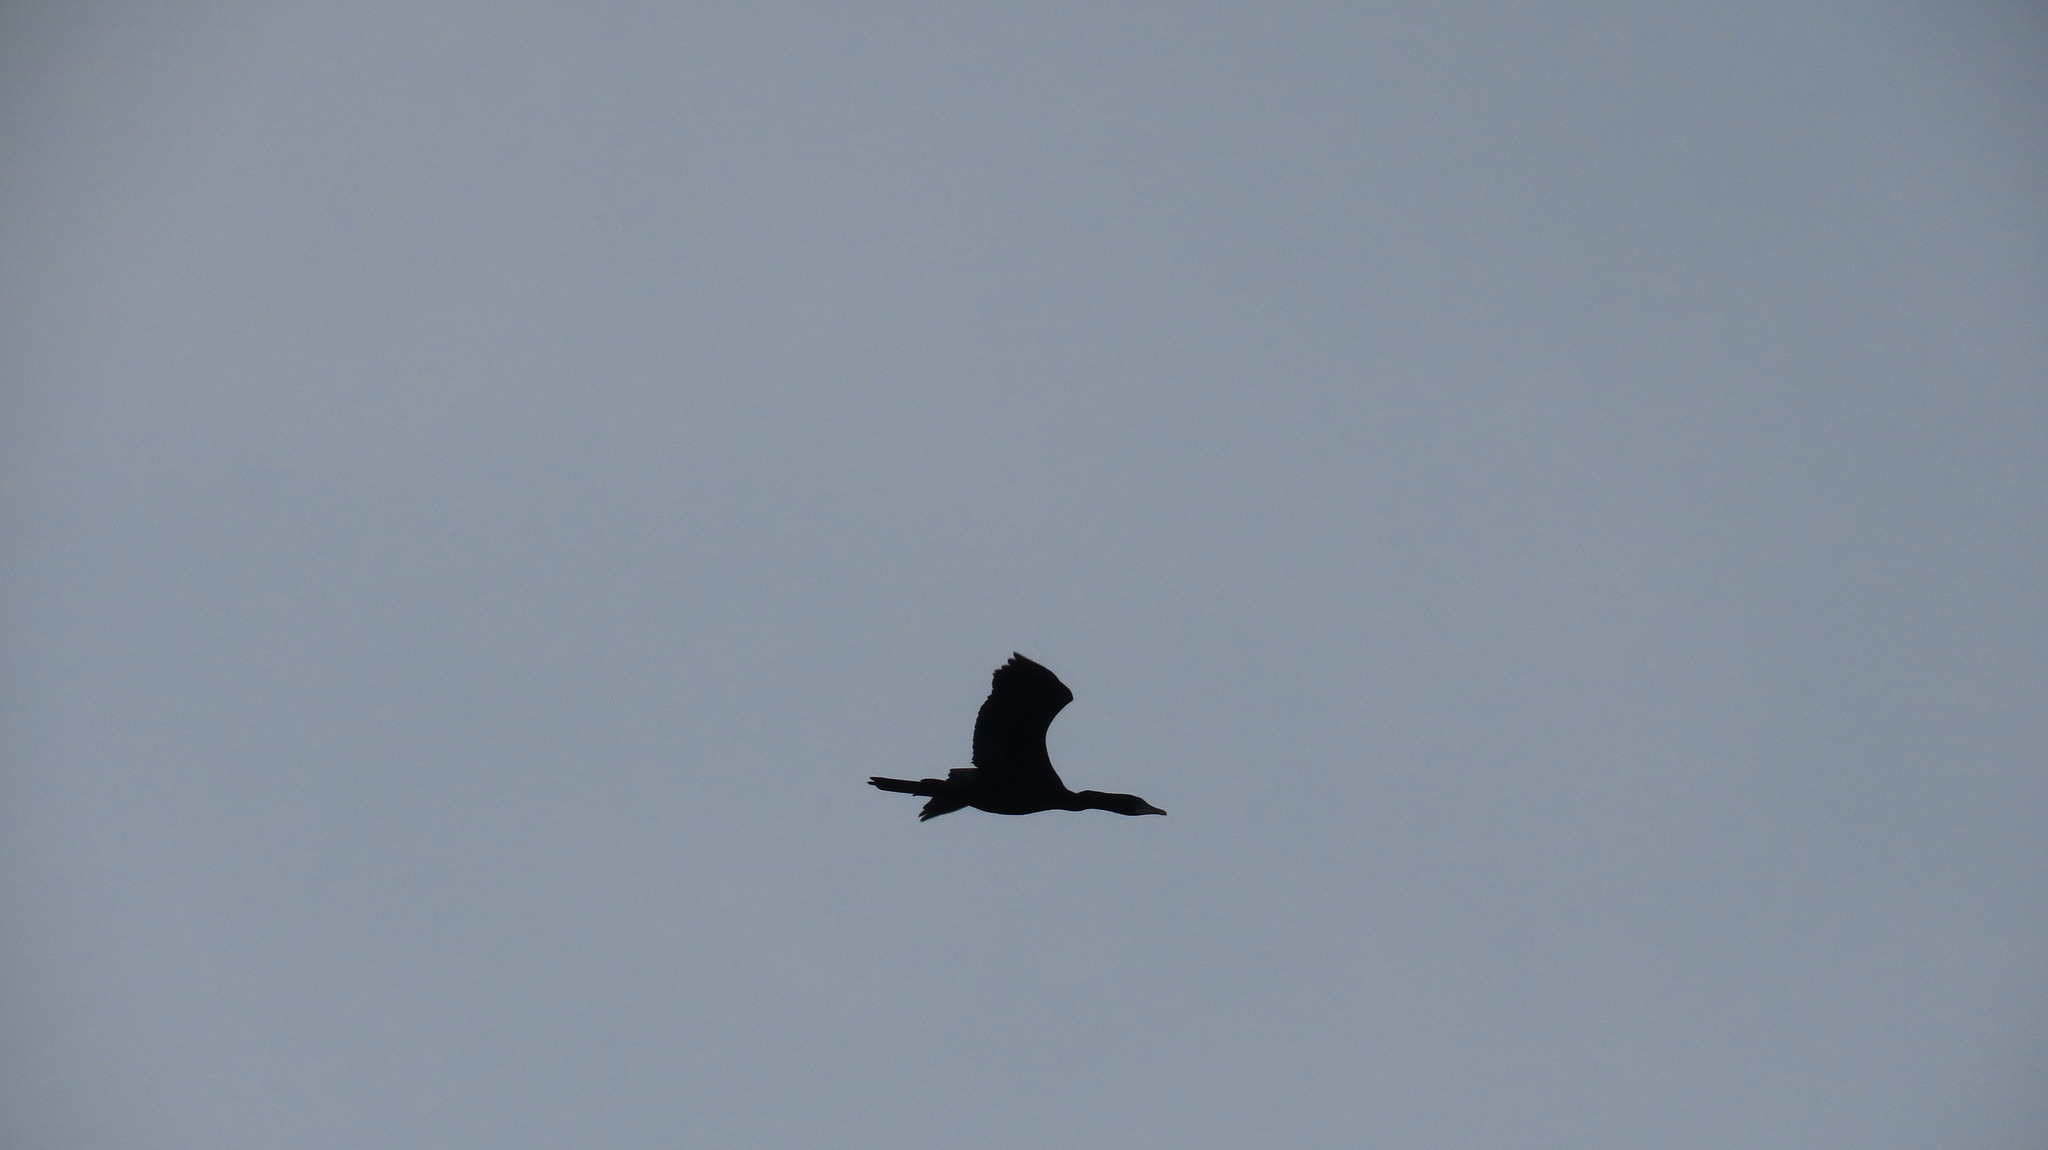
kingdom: Animalia
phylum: Chordata
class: Aves
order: Suliformes
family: Phalacrocoracidae
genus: Microcarbo
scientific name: Microcarbo niger
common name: Little cormorant
